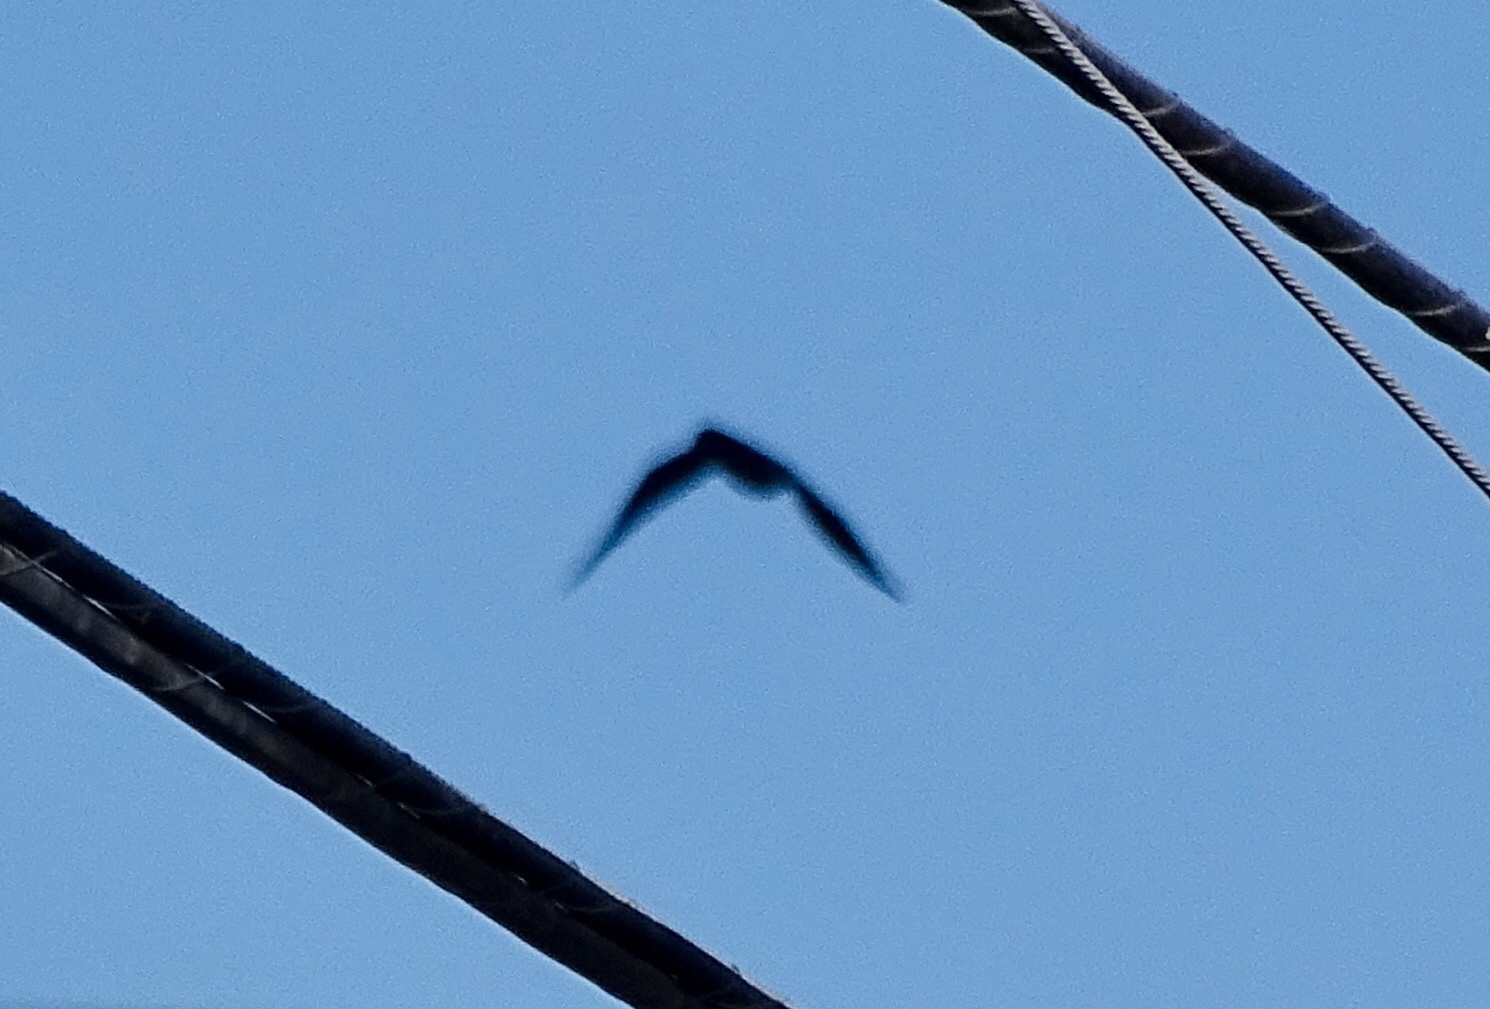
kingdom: Animalia
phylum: Chordata
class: Aves
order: Passeriformes
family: Corvidae
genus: Corvus
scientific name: Corvus corax
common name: Common raven
